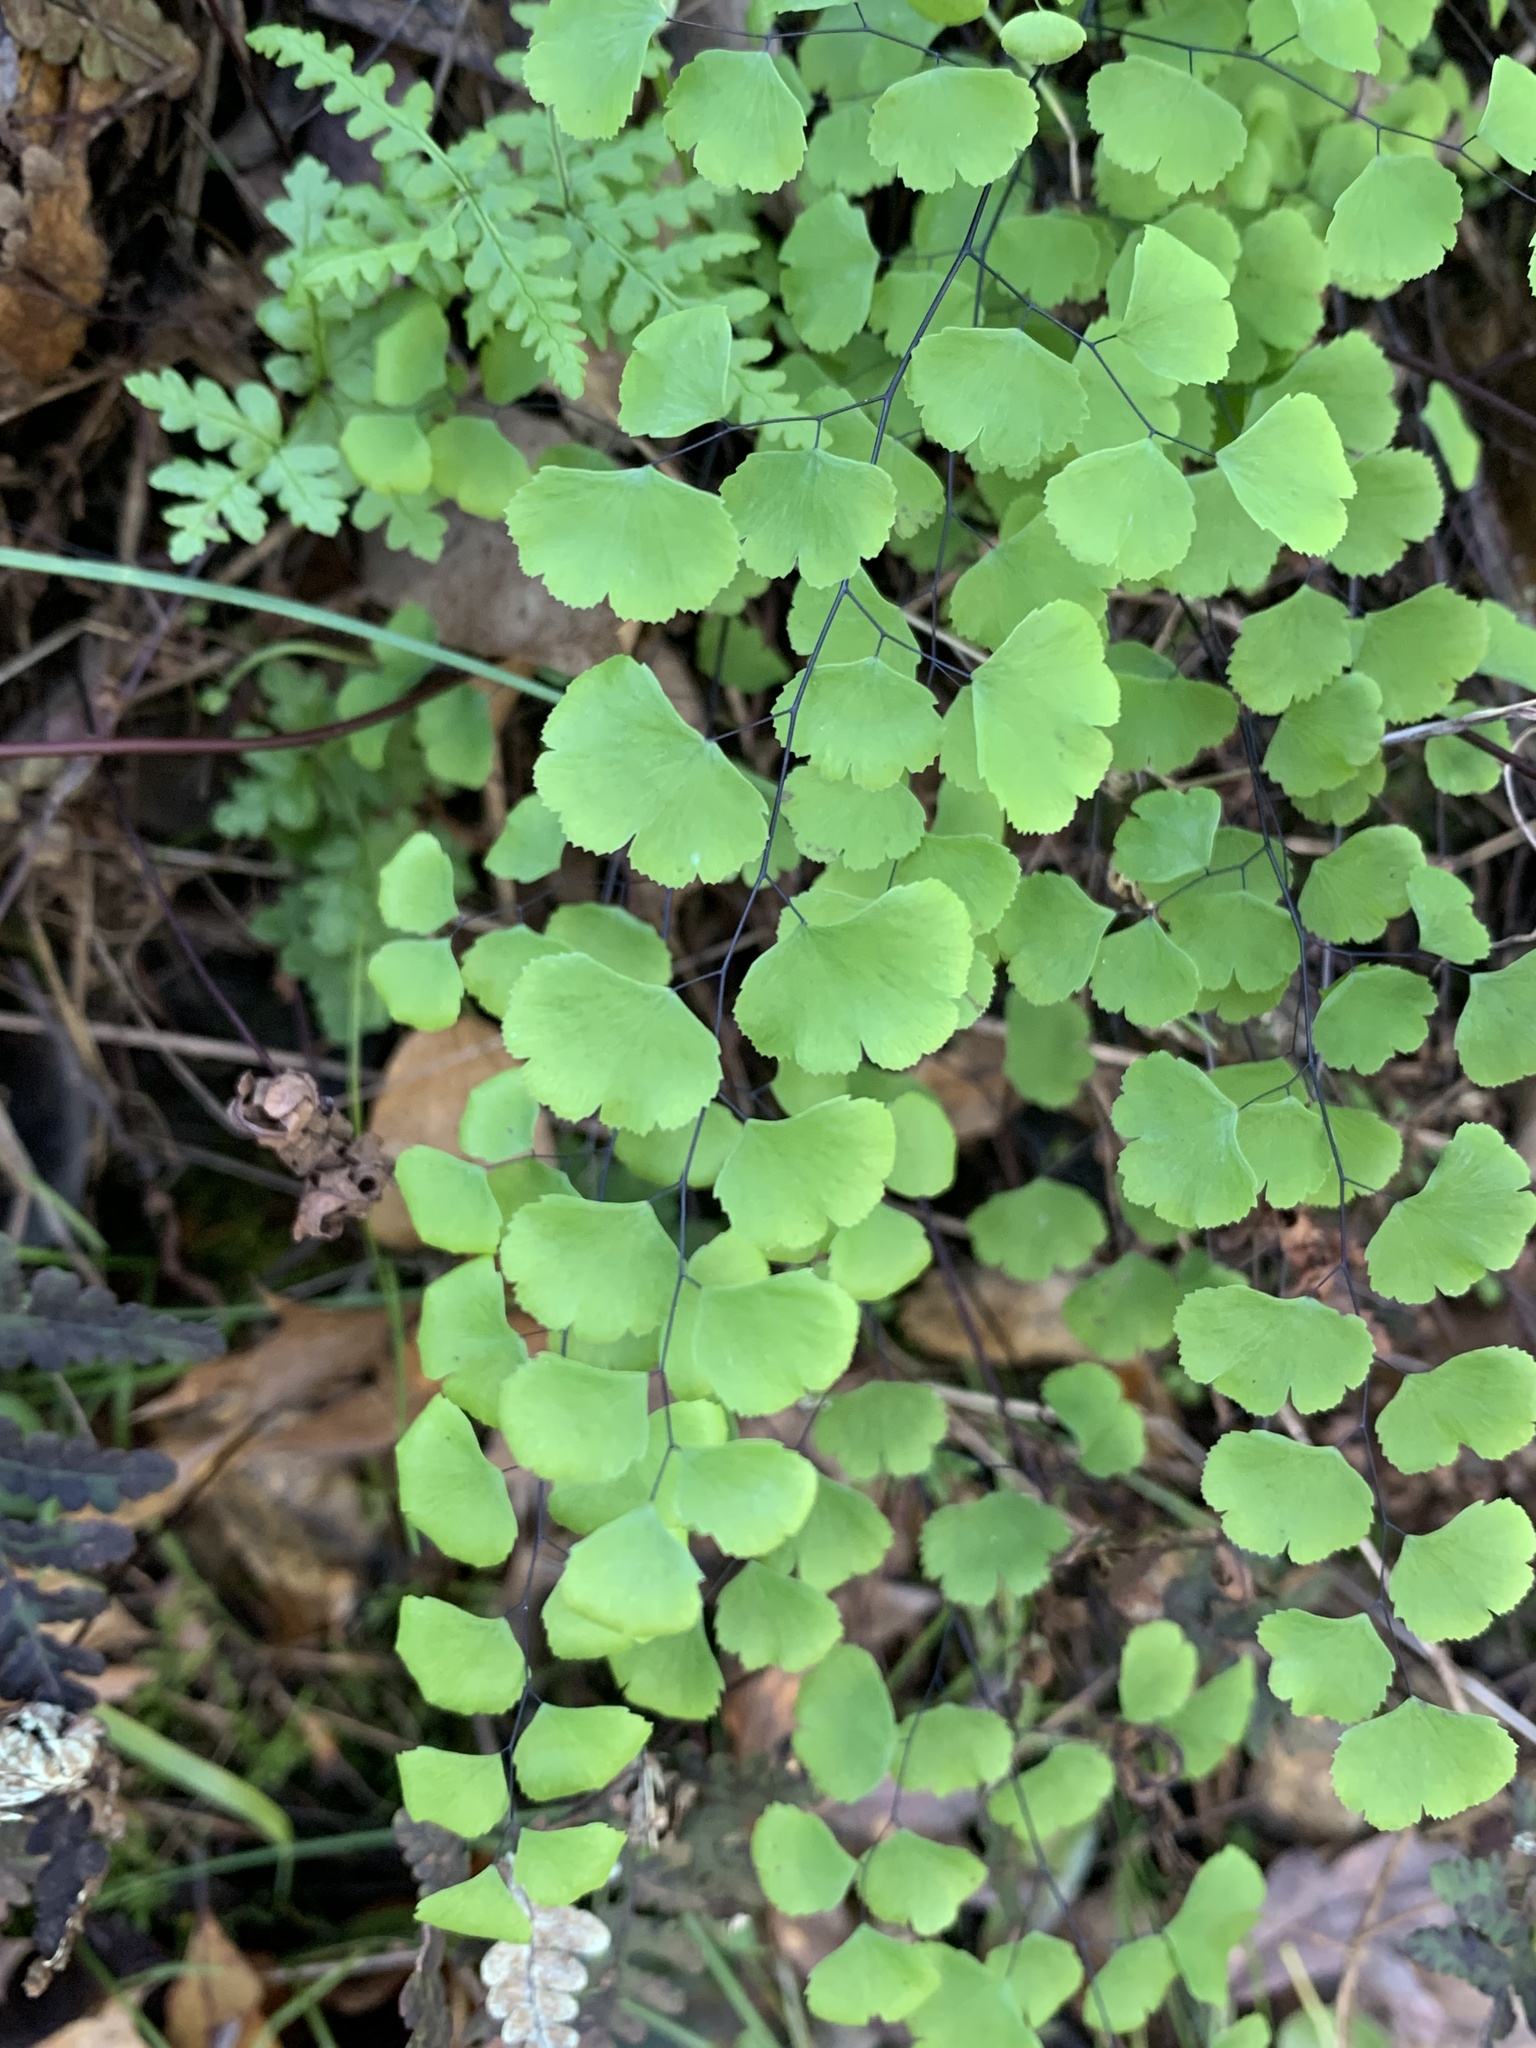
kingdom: Plantae
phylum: Tracheophyta
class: Polypodiopsida
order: Polypodiales
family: Pteridaceae
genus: Adiantum
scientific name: Adiantum jordanii
